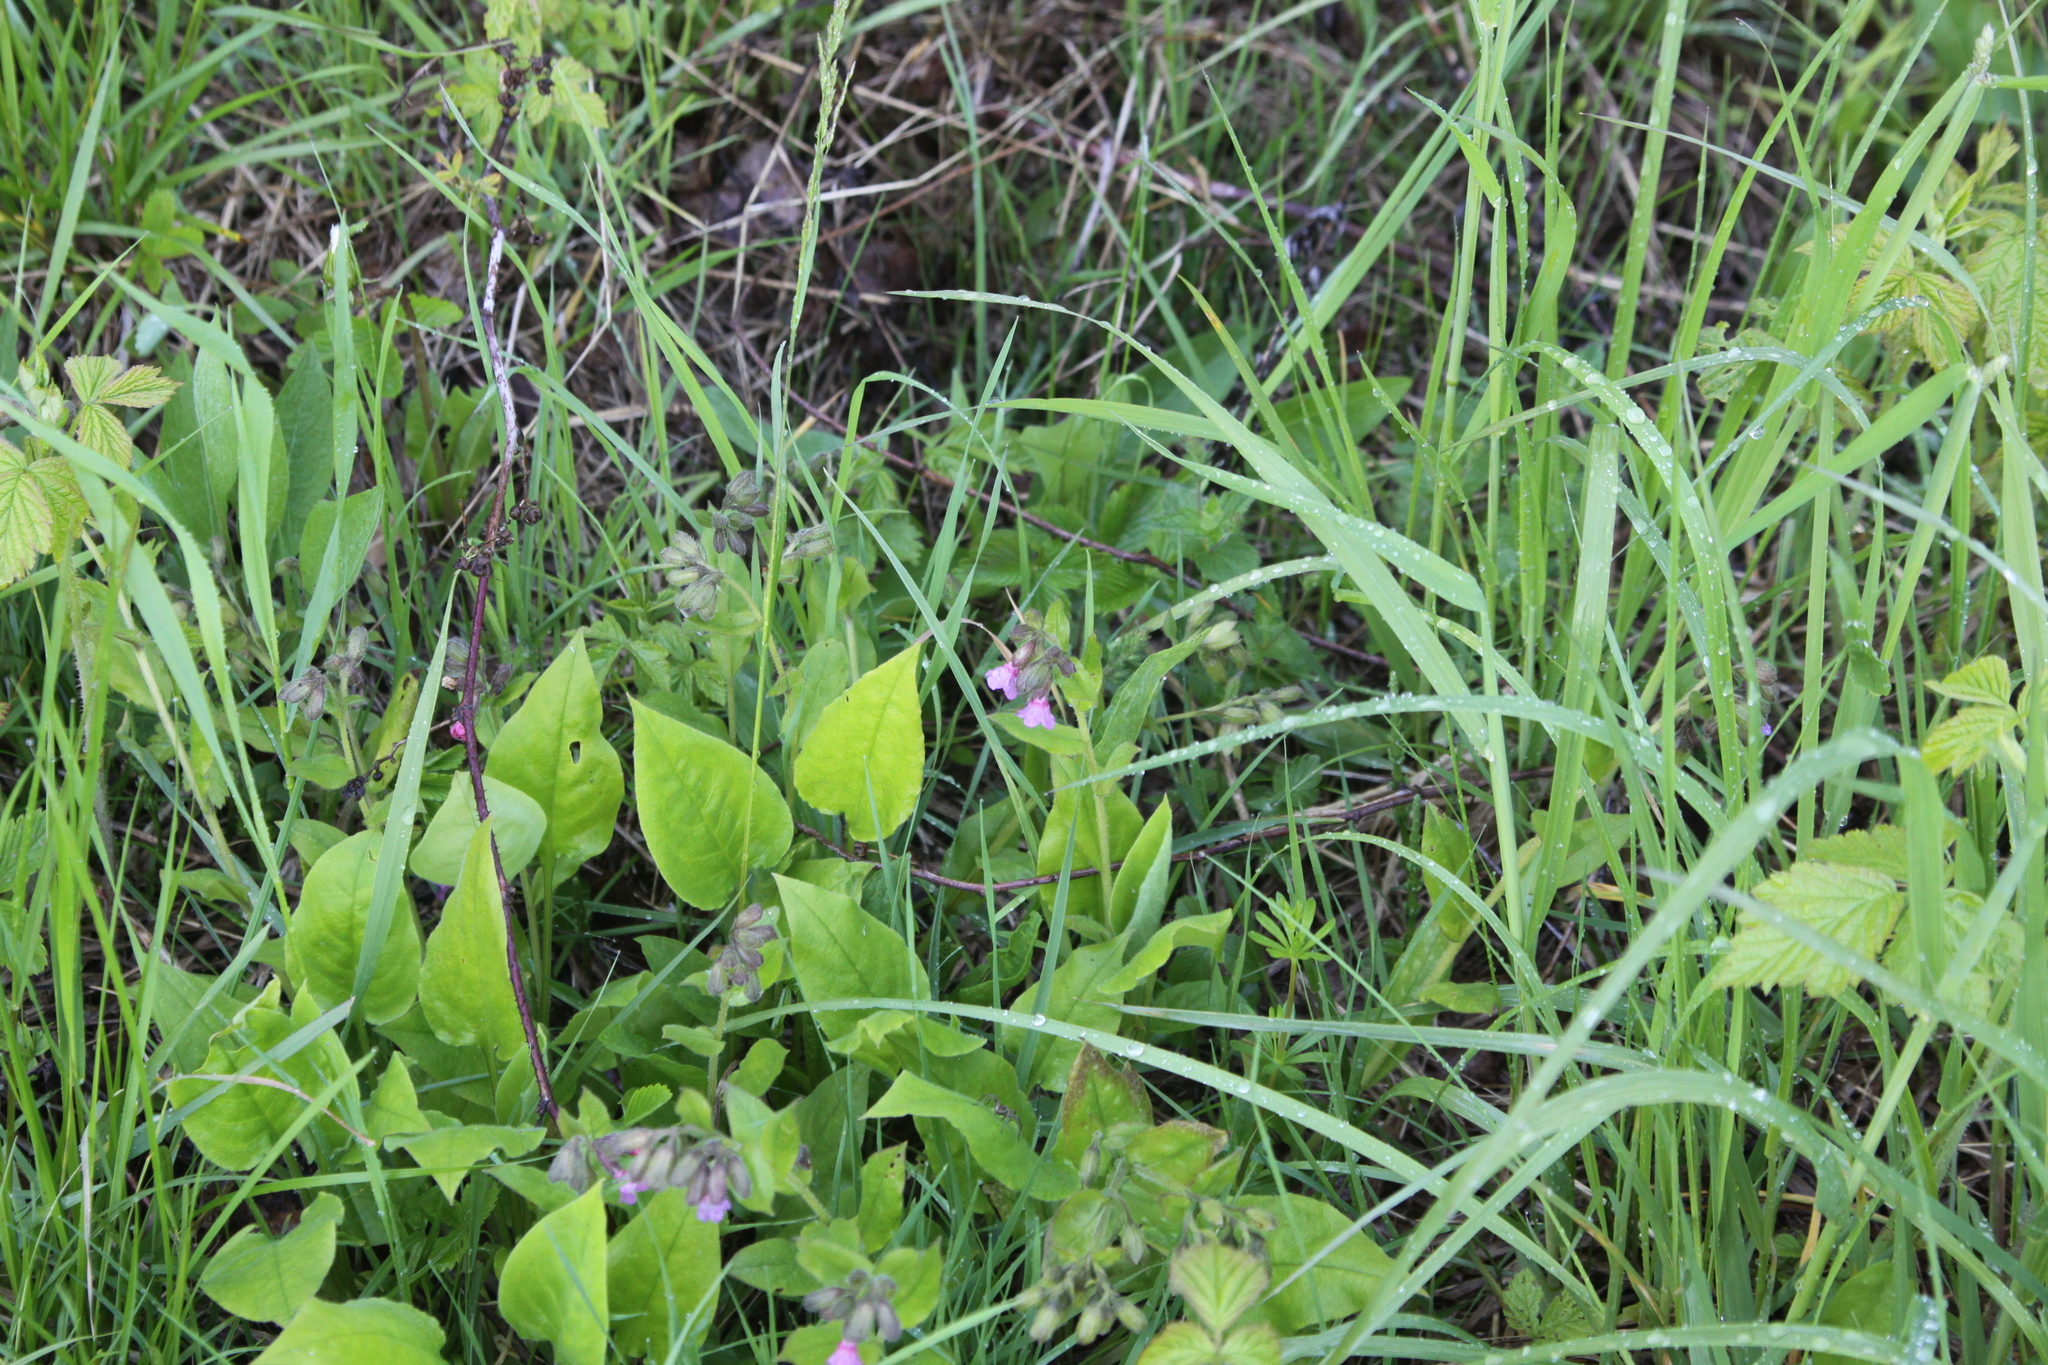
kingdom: Plantae
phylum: Tracheophyta
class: Magnoliopsida
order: Boraginales
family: Boraginaceae
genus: Pulmonaria
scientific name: Pulmonaria obscura
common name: Suffolk lungwort
